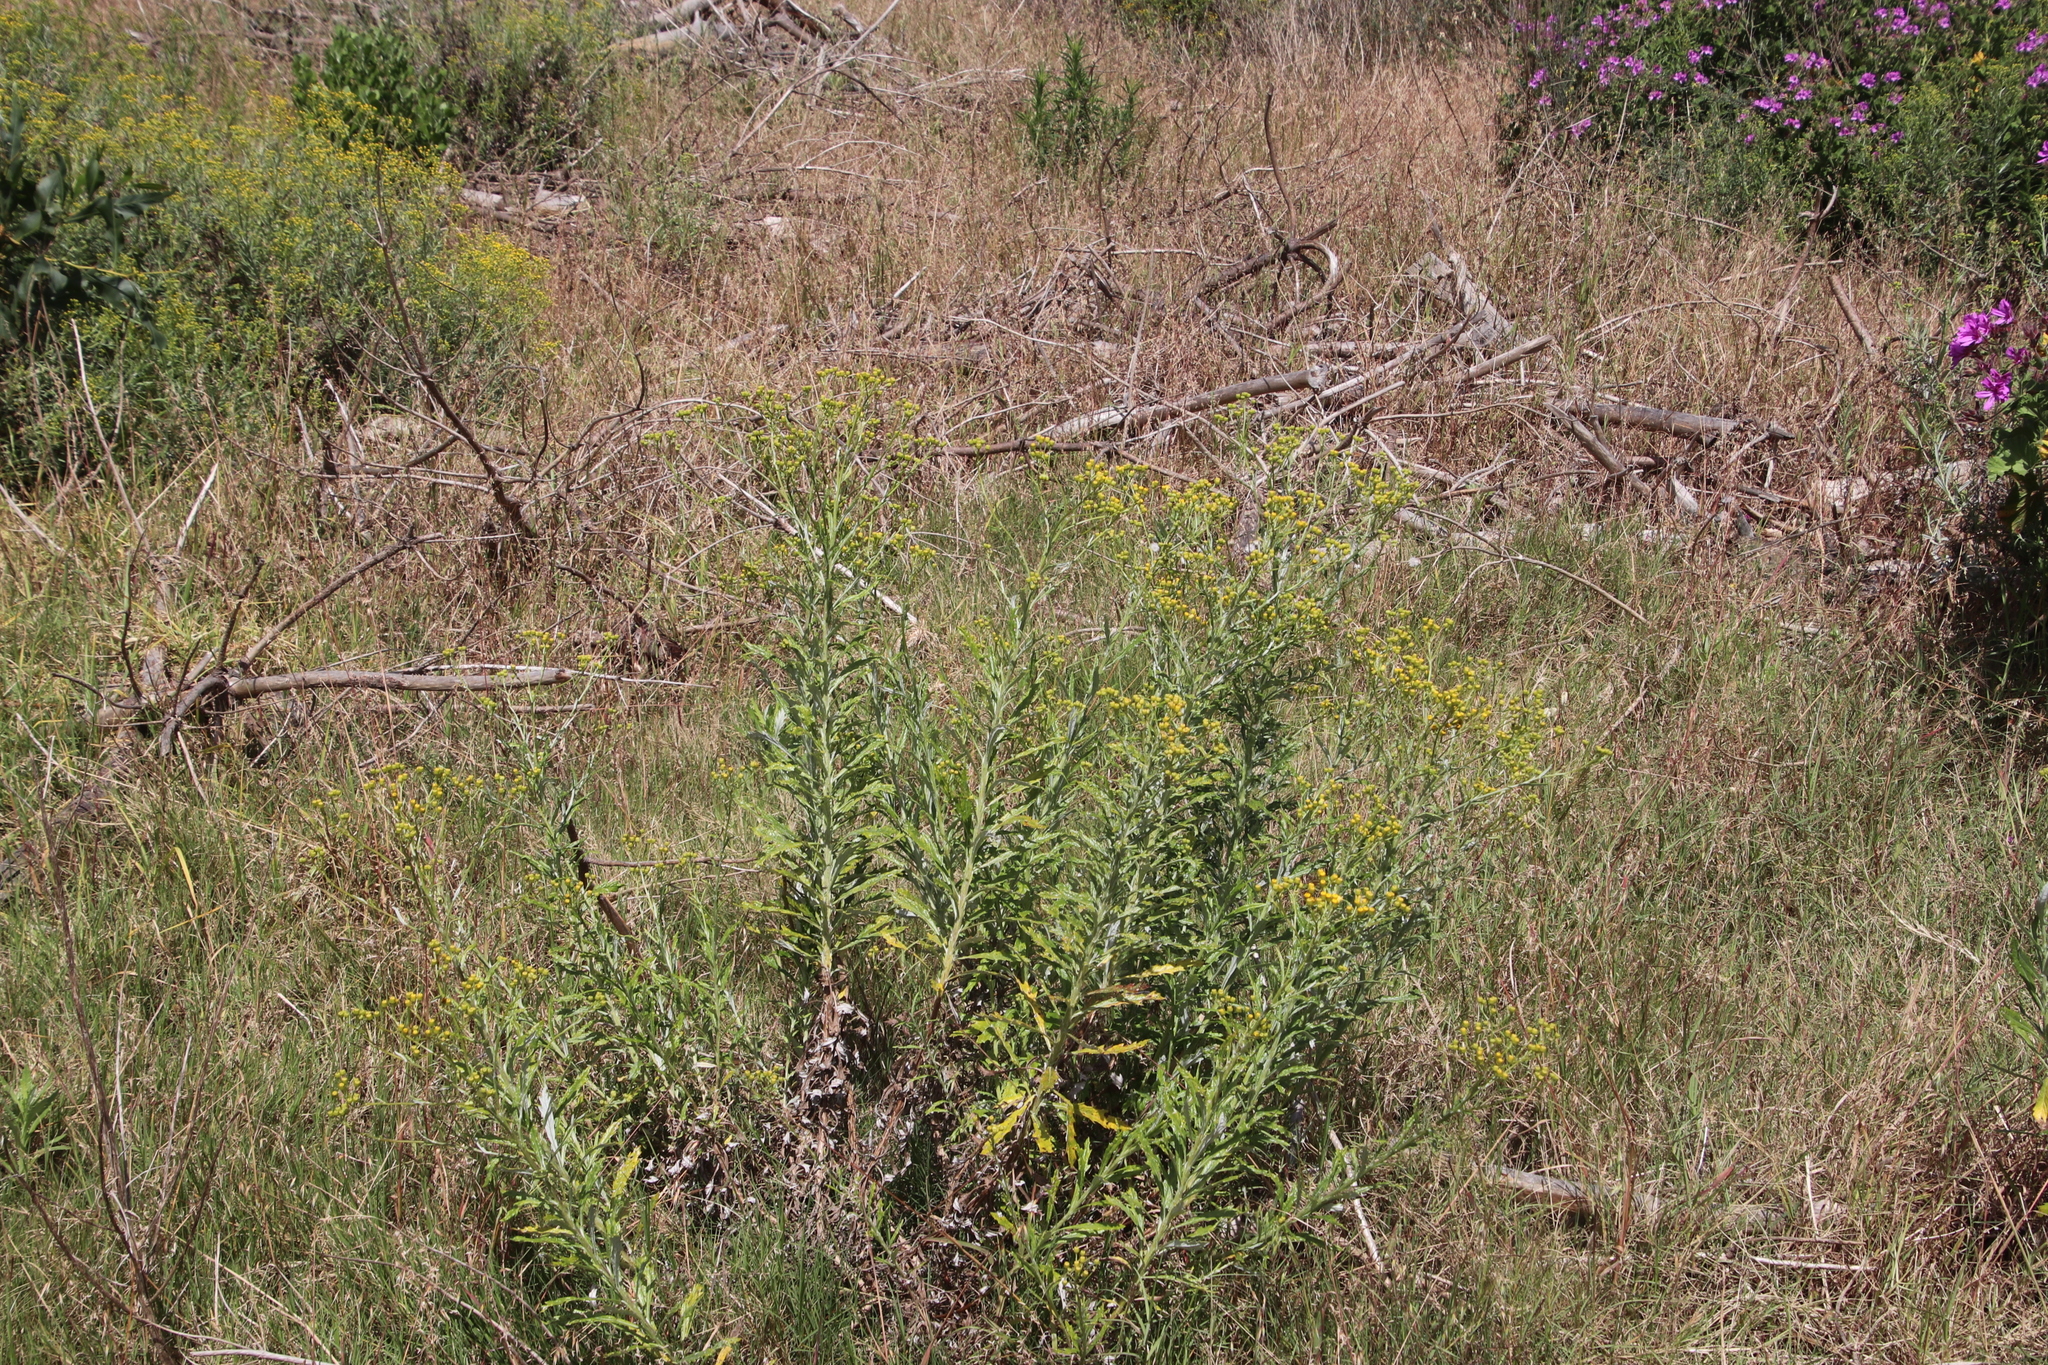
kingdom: Plantae
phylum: Tracheophyta
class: Magnoliopsida
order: Asterales
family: Asteraceae
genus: Senecio
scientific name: Senecio pterophorus
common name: Shoddy ragwort
